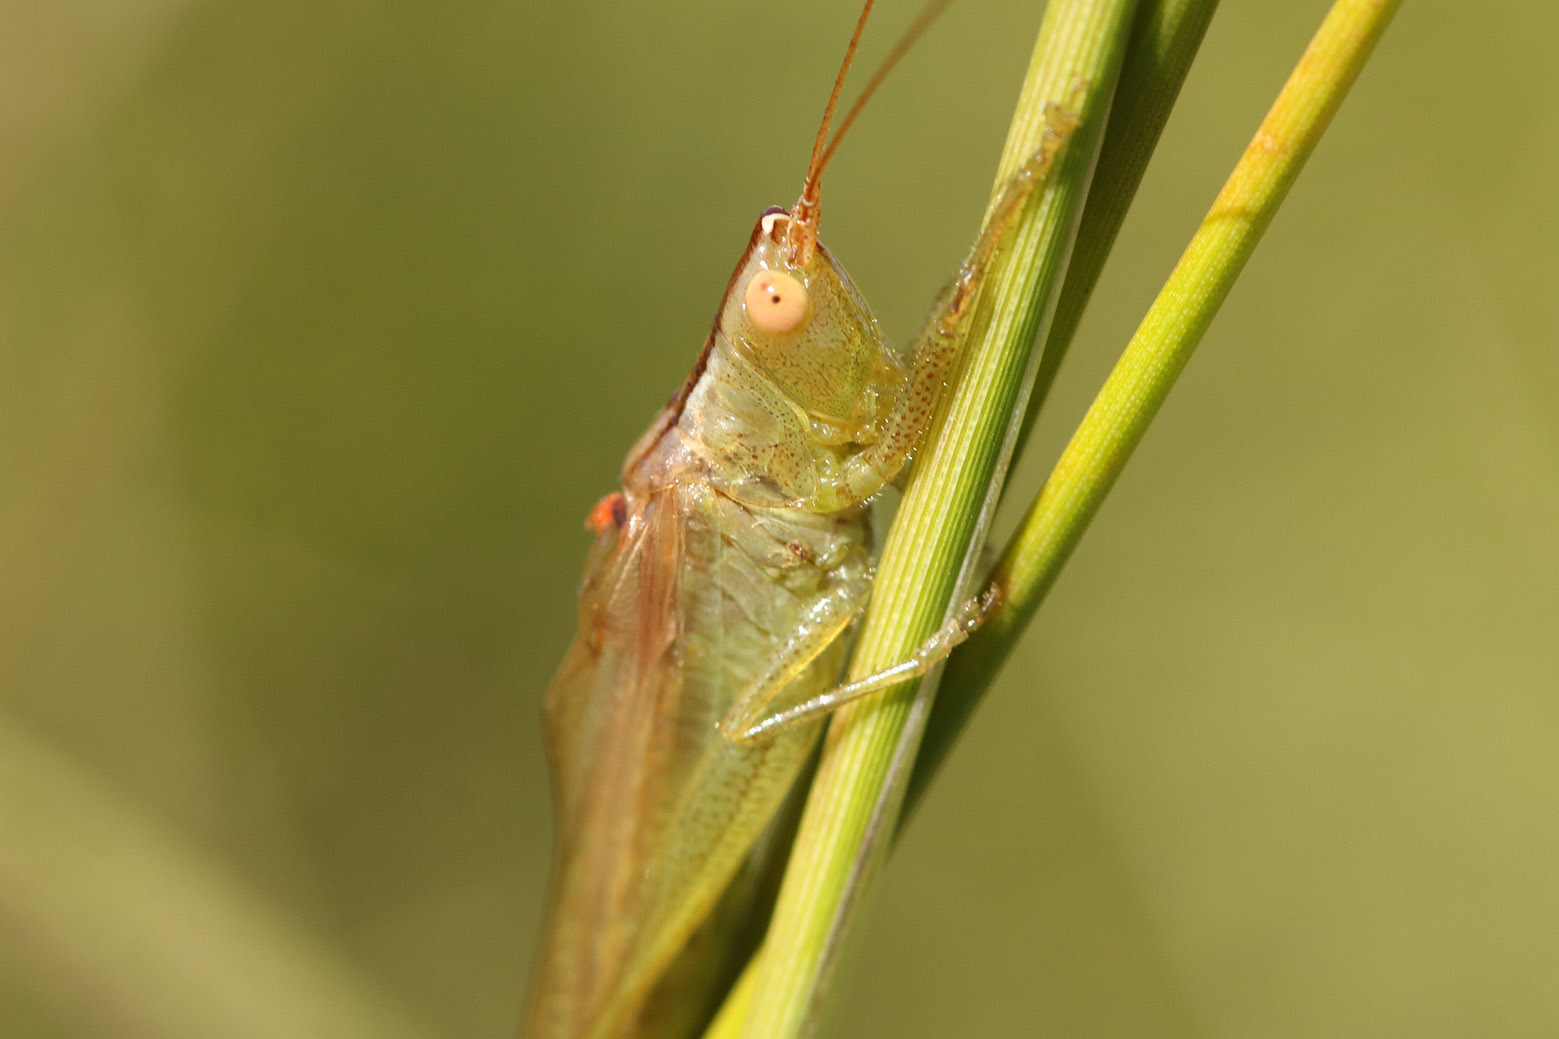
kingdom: Animalia
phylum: Arthropoda
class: Insecta
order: Orthoptera
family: Tettigoniidae
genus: Conocephalus
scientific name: Conocephalus longipes
